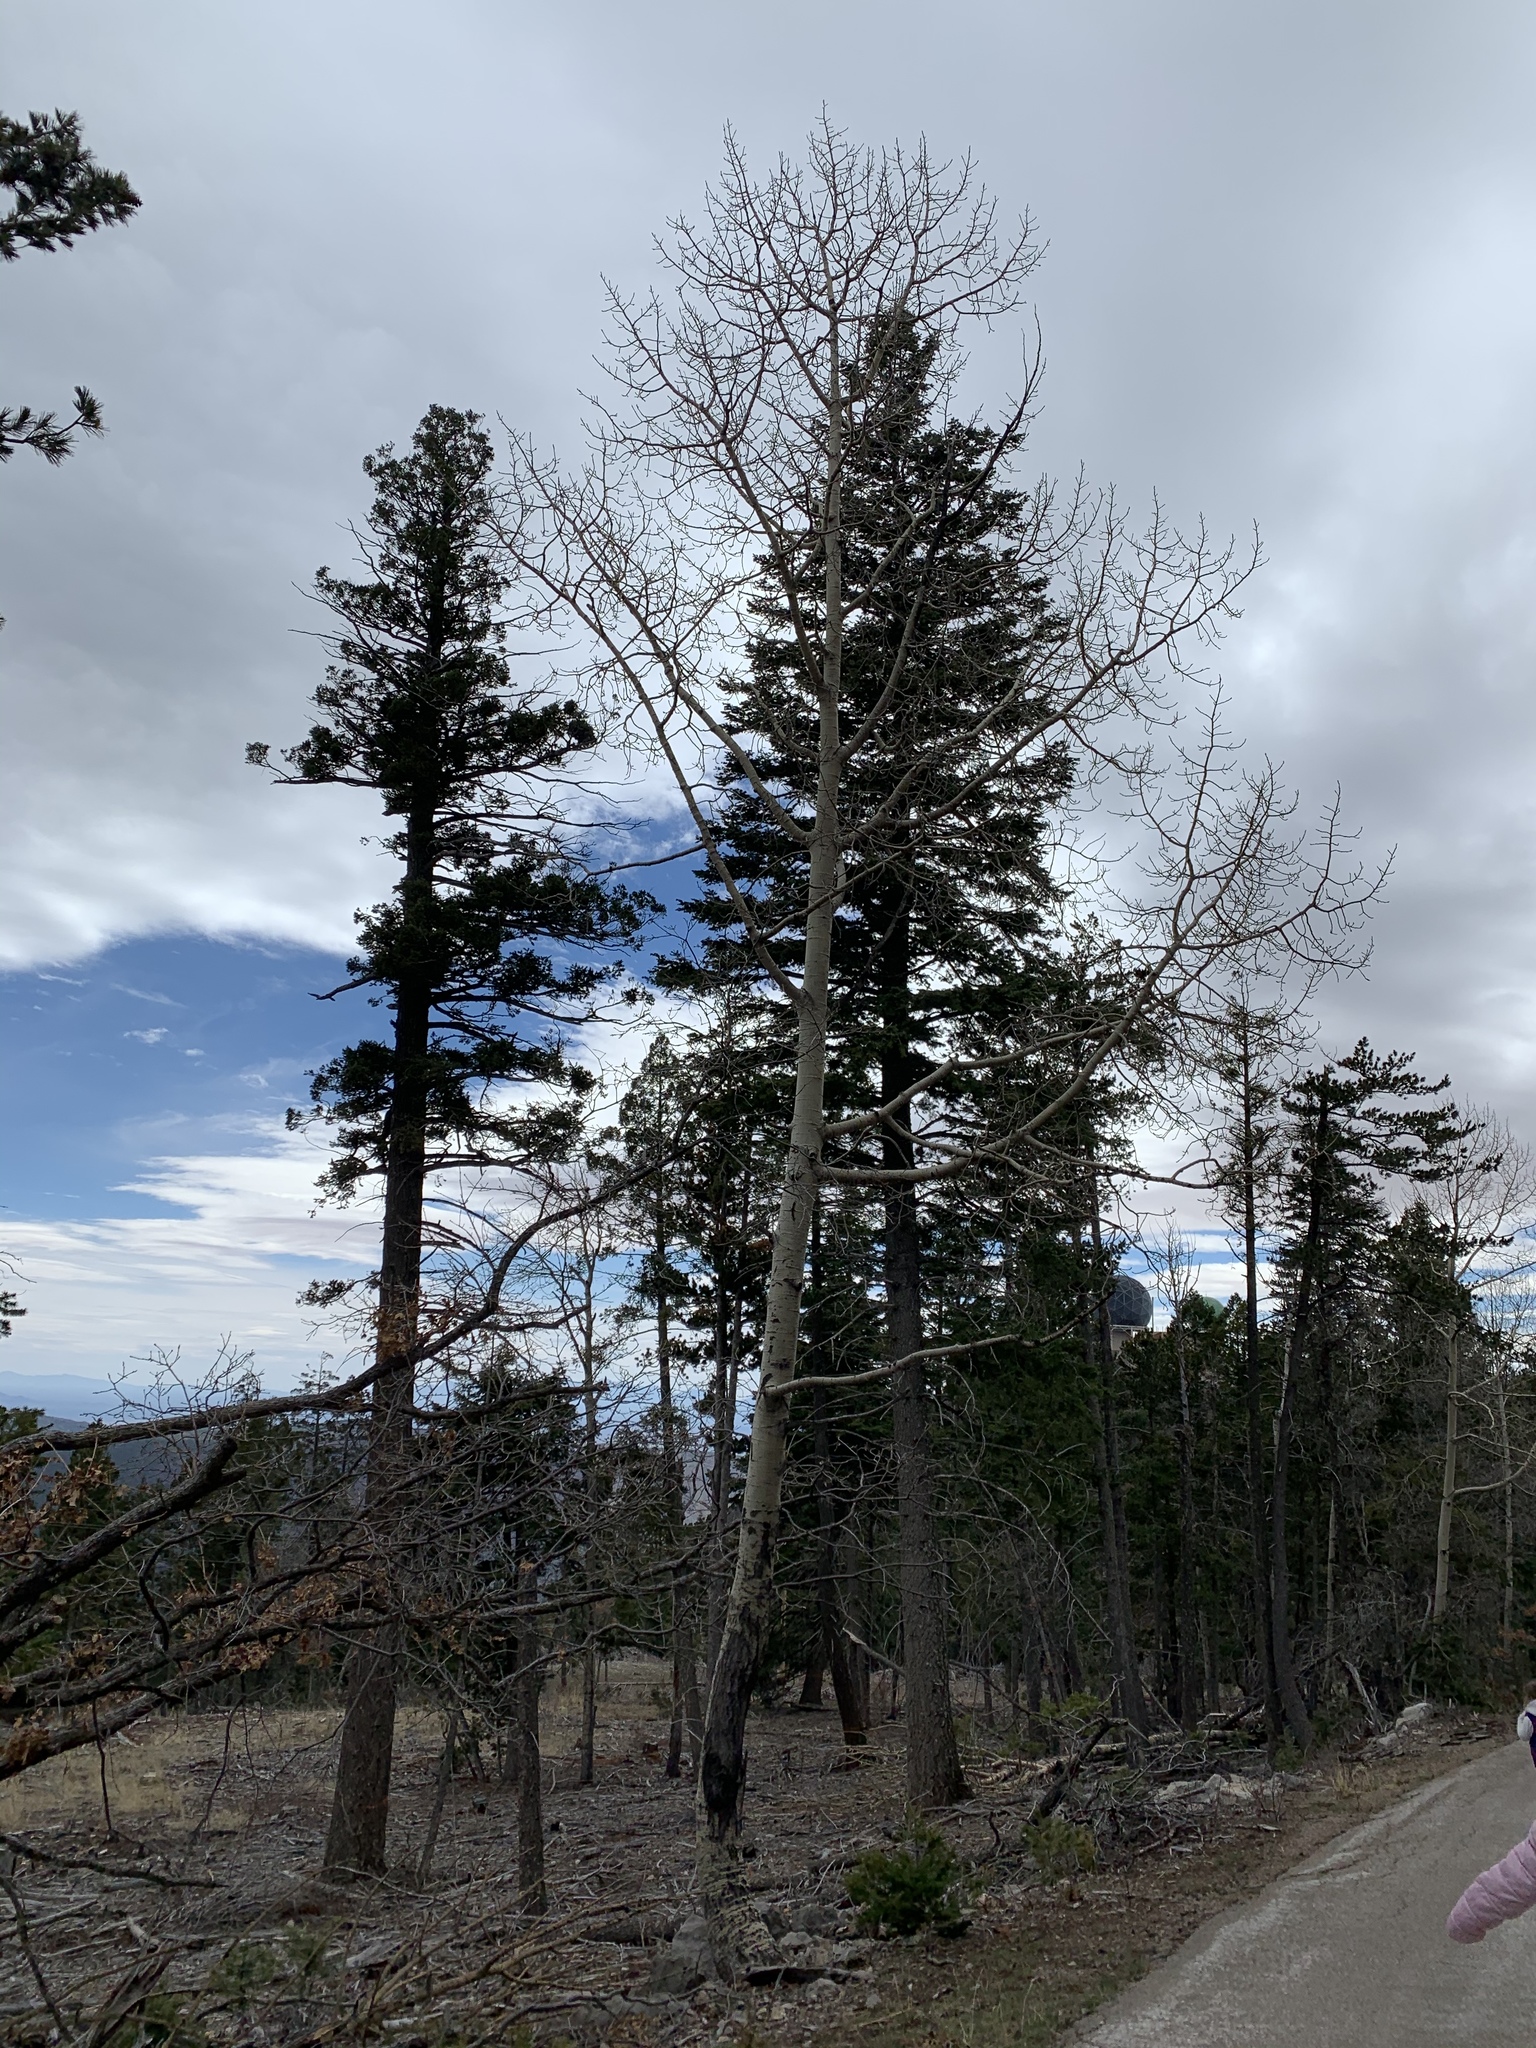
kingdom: Plantae
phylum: Tracheophyta
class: Magnoliopsida
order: Malpighiales
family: Salicaceae
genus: Populus
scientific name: Populus tremuloides
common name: Quaking aspen
